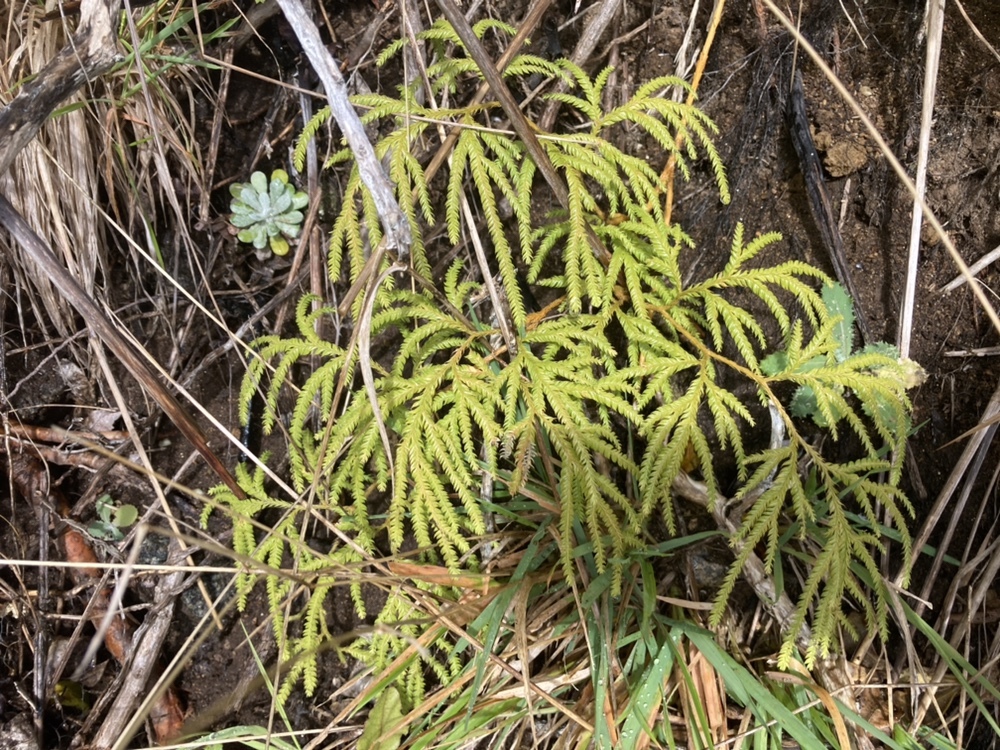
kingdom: Plantae
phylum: Tracheophyta
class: Lycopodiopsida
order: Lycopodiales
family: Lycopodiaceae
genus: Lycopodium
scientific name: Lycopodium volubile
